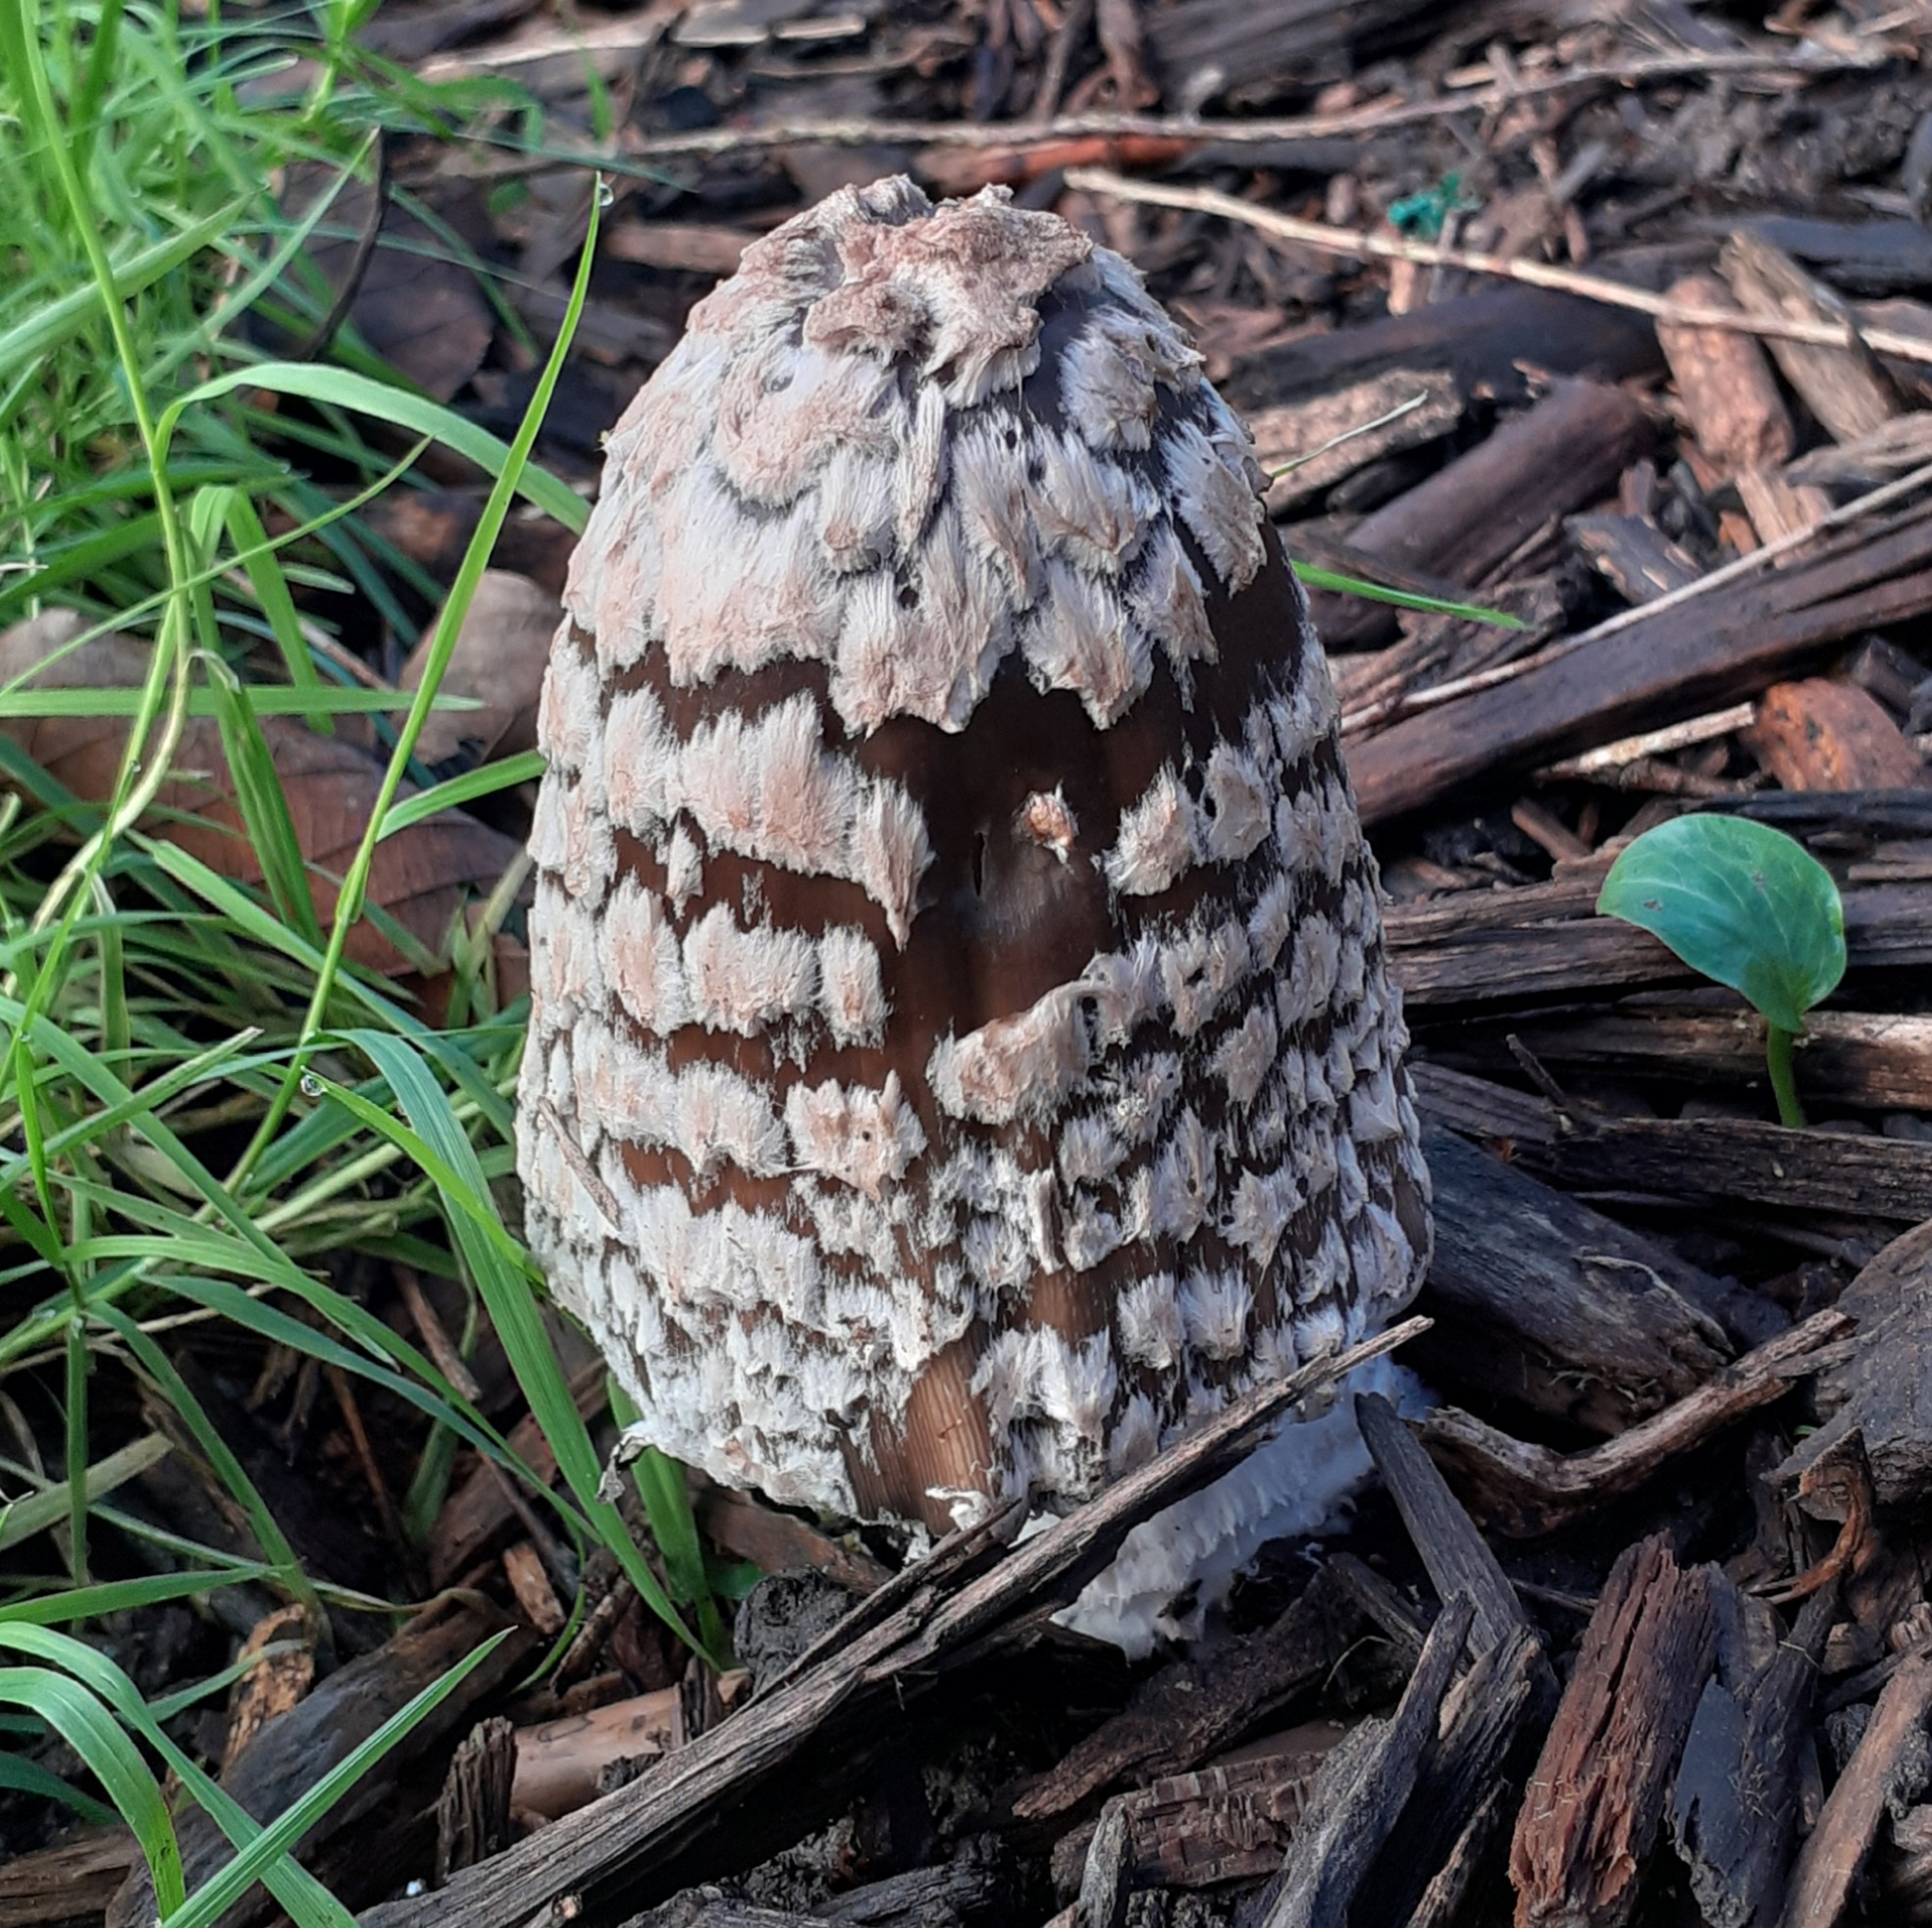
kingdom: Fungi
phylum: Basidiomycota
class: Agaricomycetes
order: Agaricales
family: Psathyrellaceae
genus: Coprinopsis
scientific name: Coprinopsis picacea
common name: Magpie inkcap
